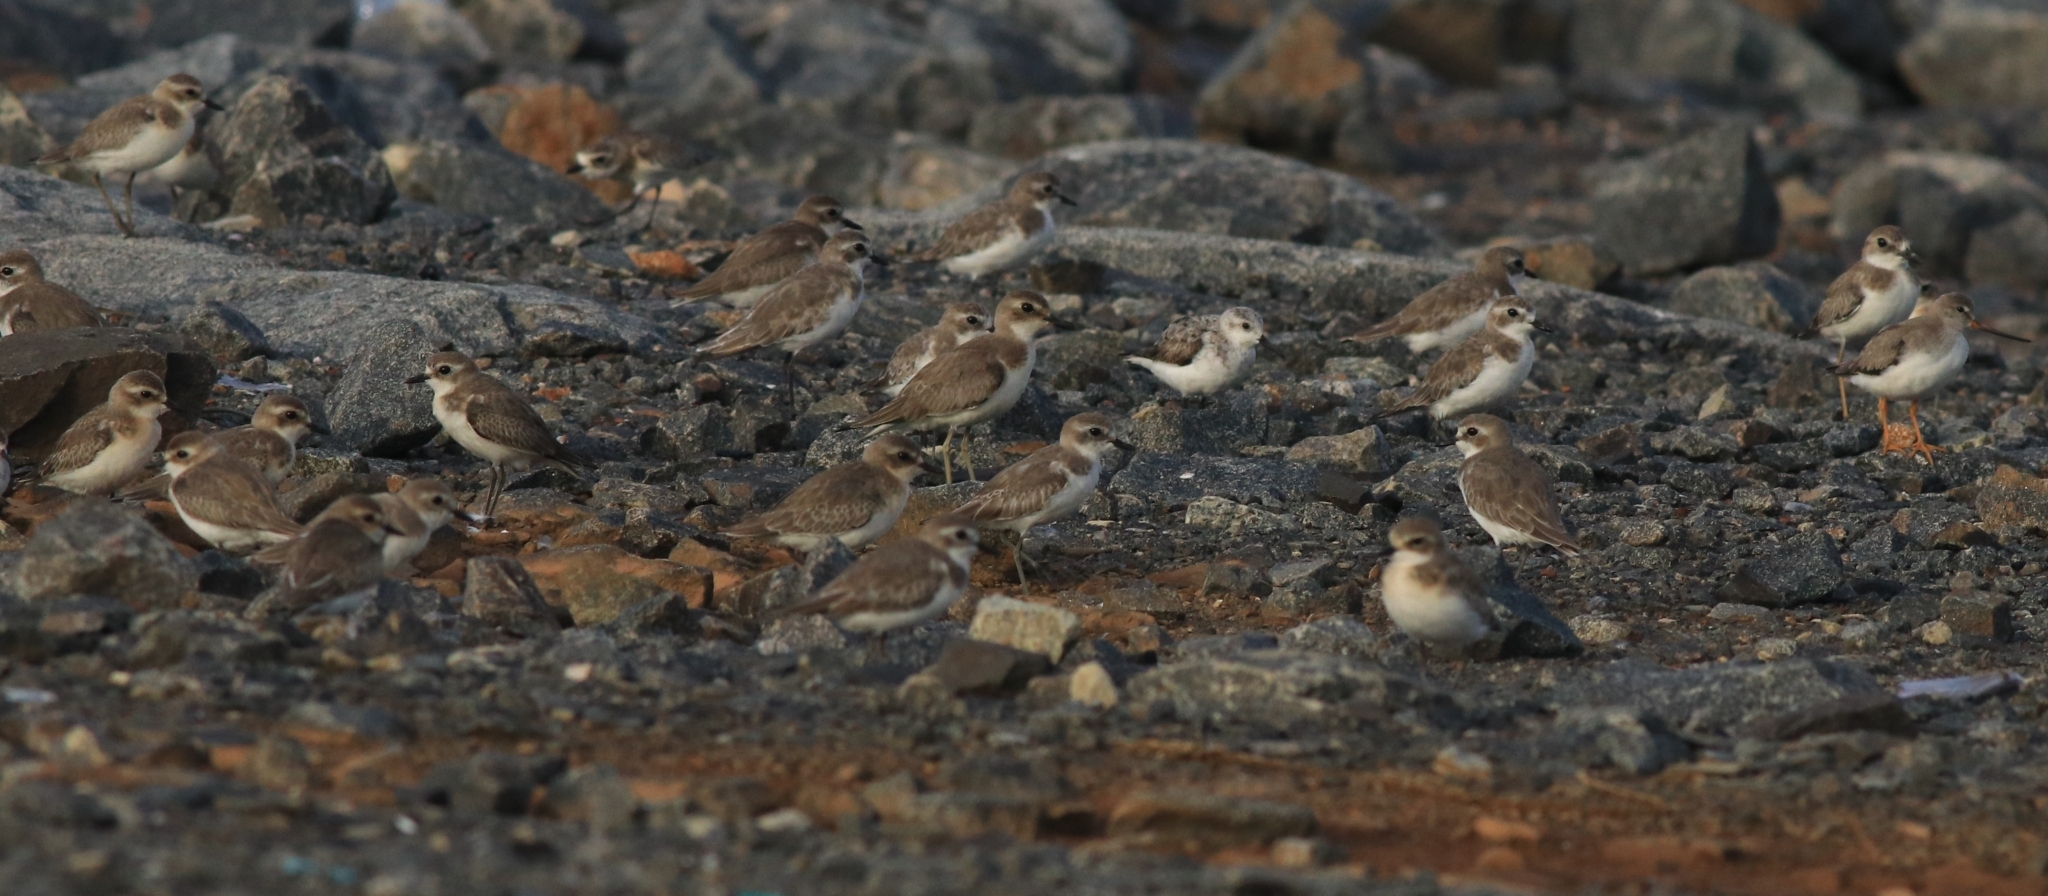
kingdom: Animalia
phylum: Chordata
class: Aves
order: Charadriiformes
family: Charadriidae
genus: Anarhynchus
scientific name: Anarhynchus
